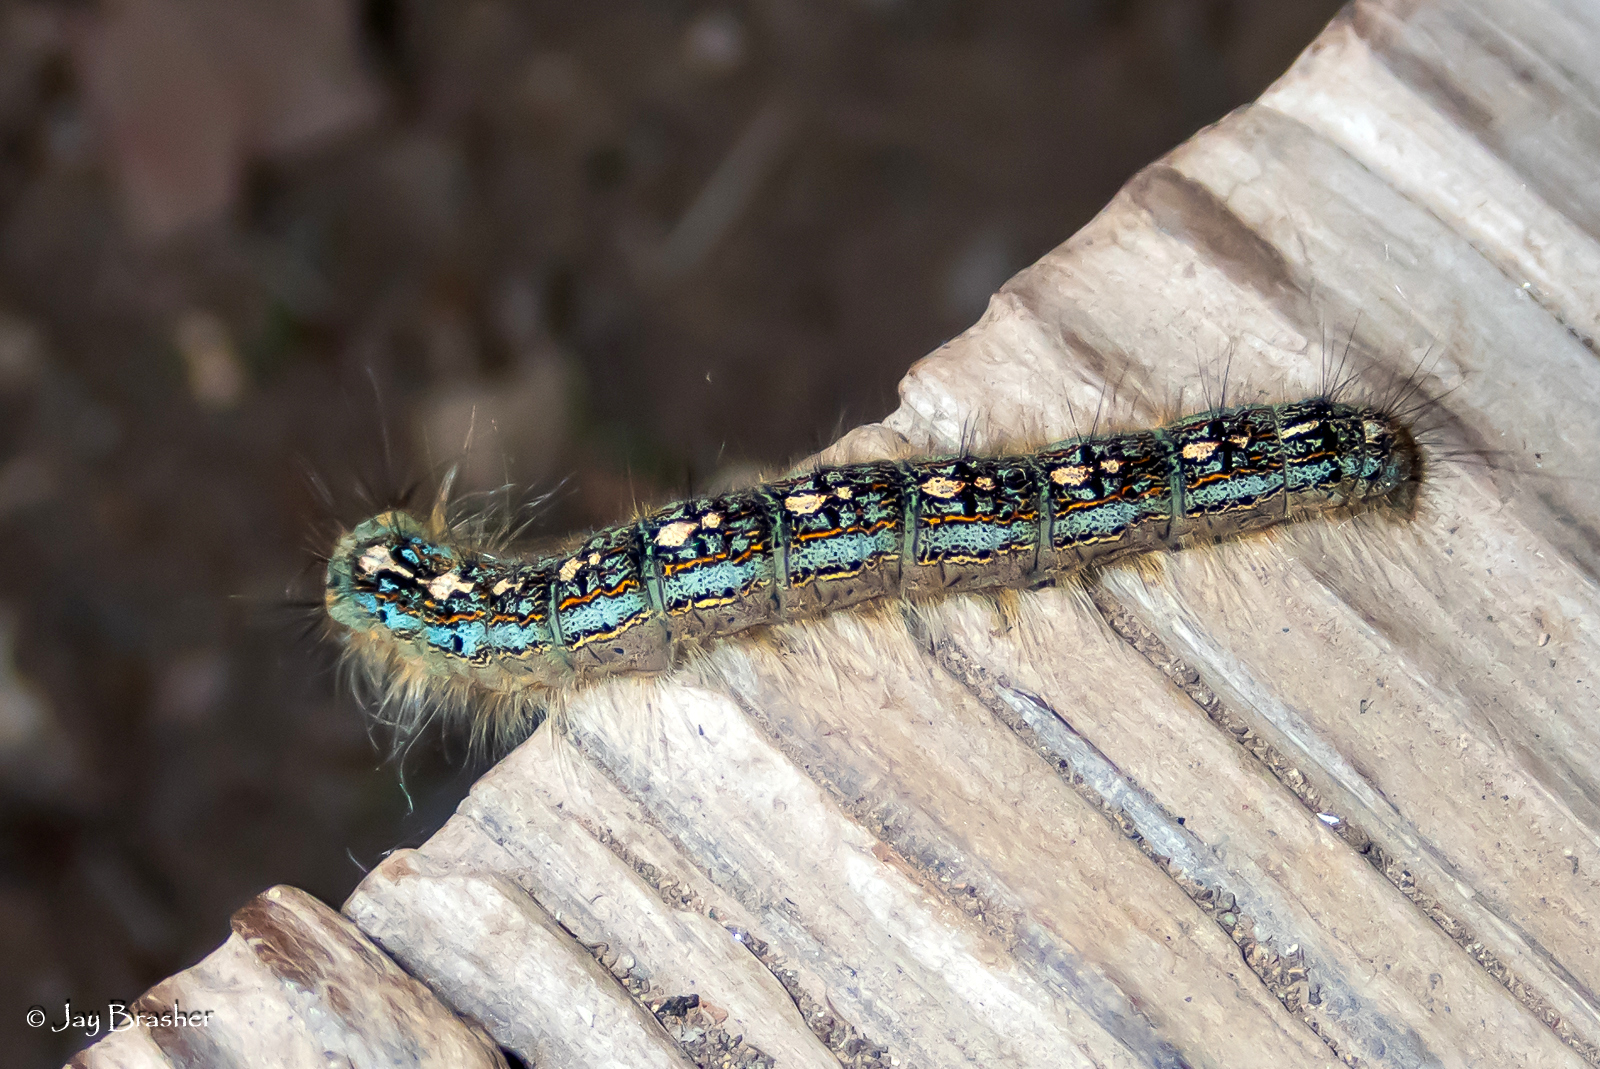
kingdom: Animalia
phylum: Arthropoda
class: Insecta
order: Lepidoptera
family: Lasiocampidae
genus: Malacosoma
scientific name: Malacosoma disstria
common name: Forest tent caterpillar
